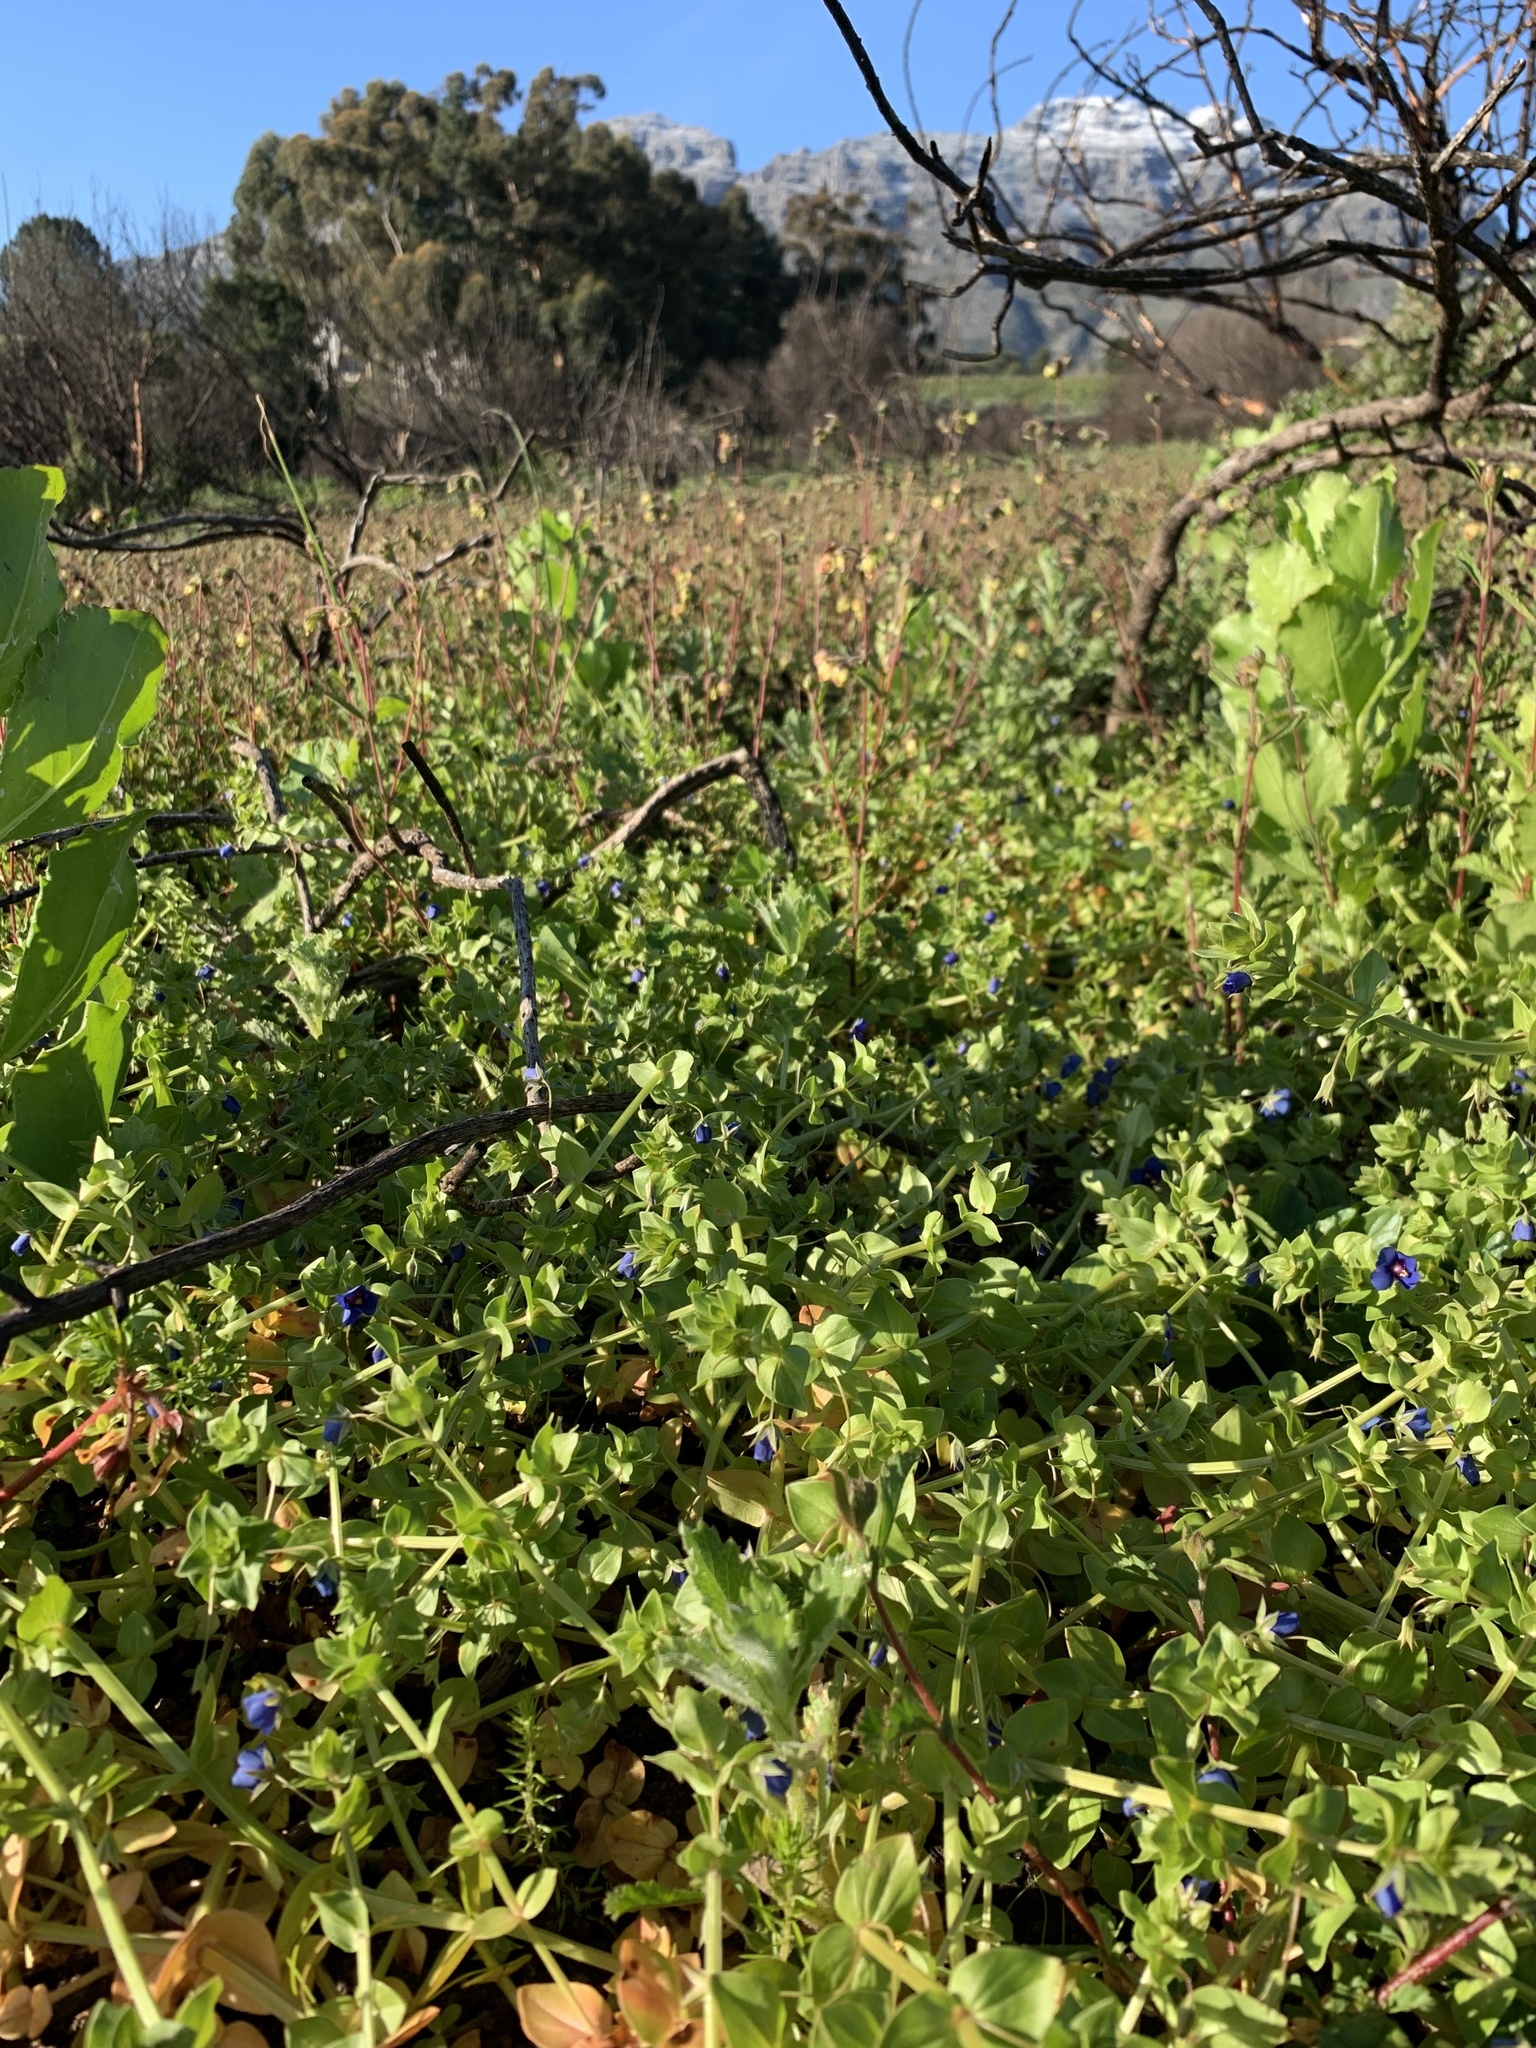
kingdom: Plantae
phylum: Tracheophyta
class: Magnoliopsida
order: Ericales
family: Primulaceae
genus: Lysimachia
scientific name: Lysimachia loeflingii
